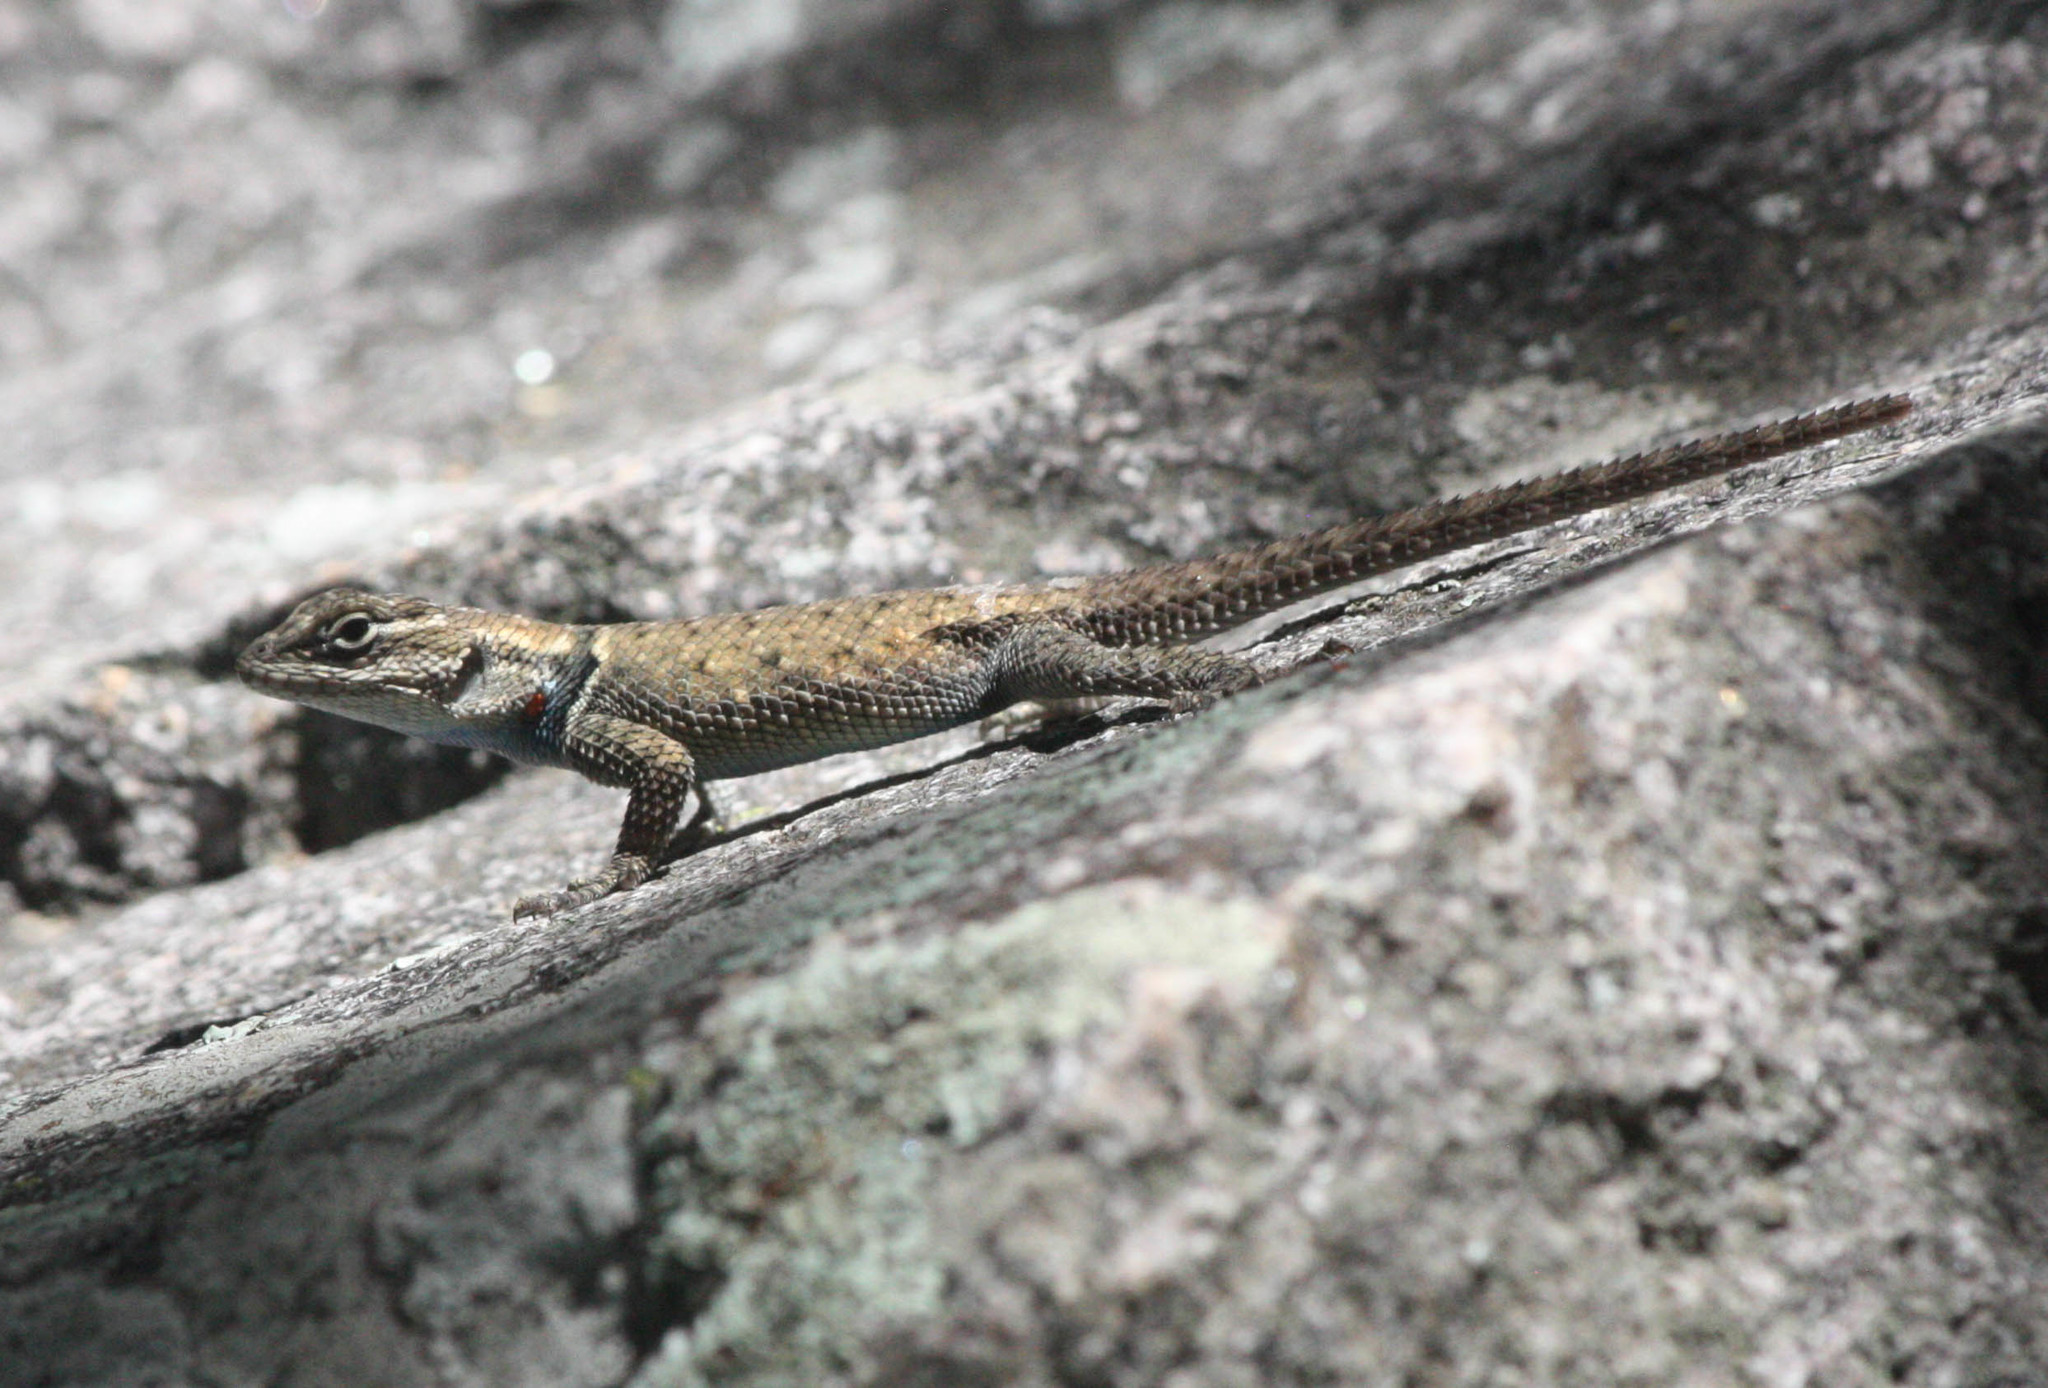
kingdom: Animalia
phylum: Chordata
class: Squamata
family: Phrynosomatidae
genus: Sceloporus
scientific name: Sceloporus jarrovii
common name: Yarrow's spiny lizard
